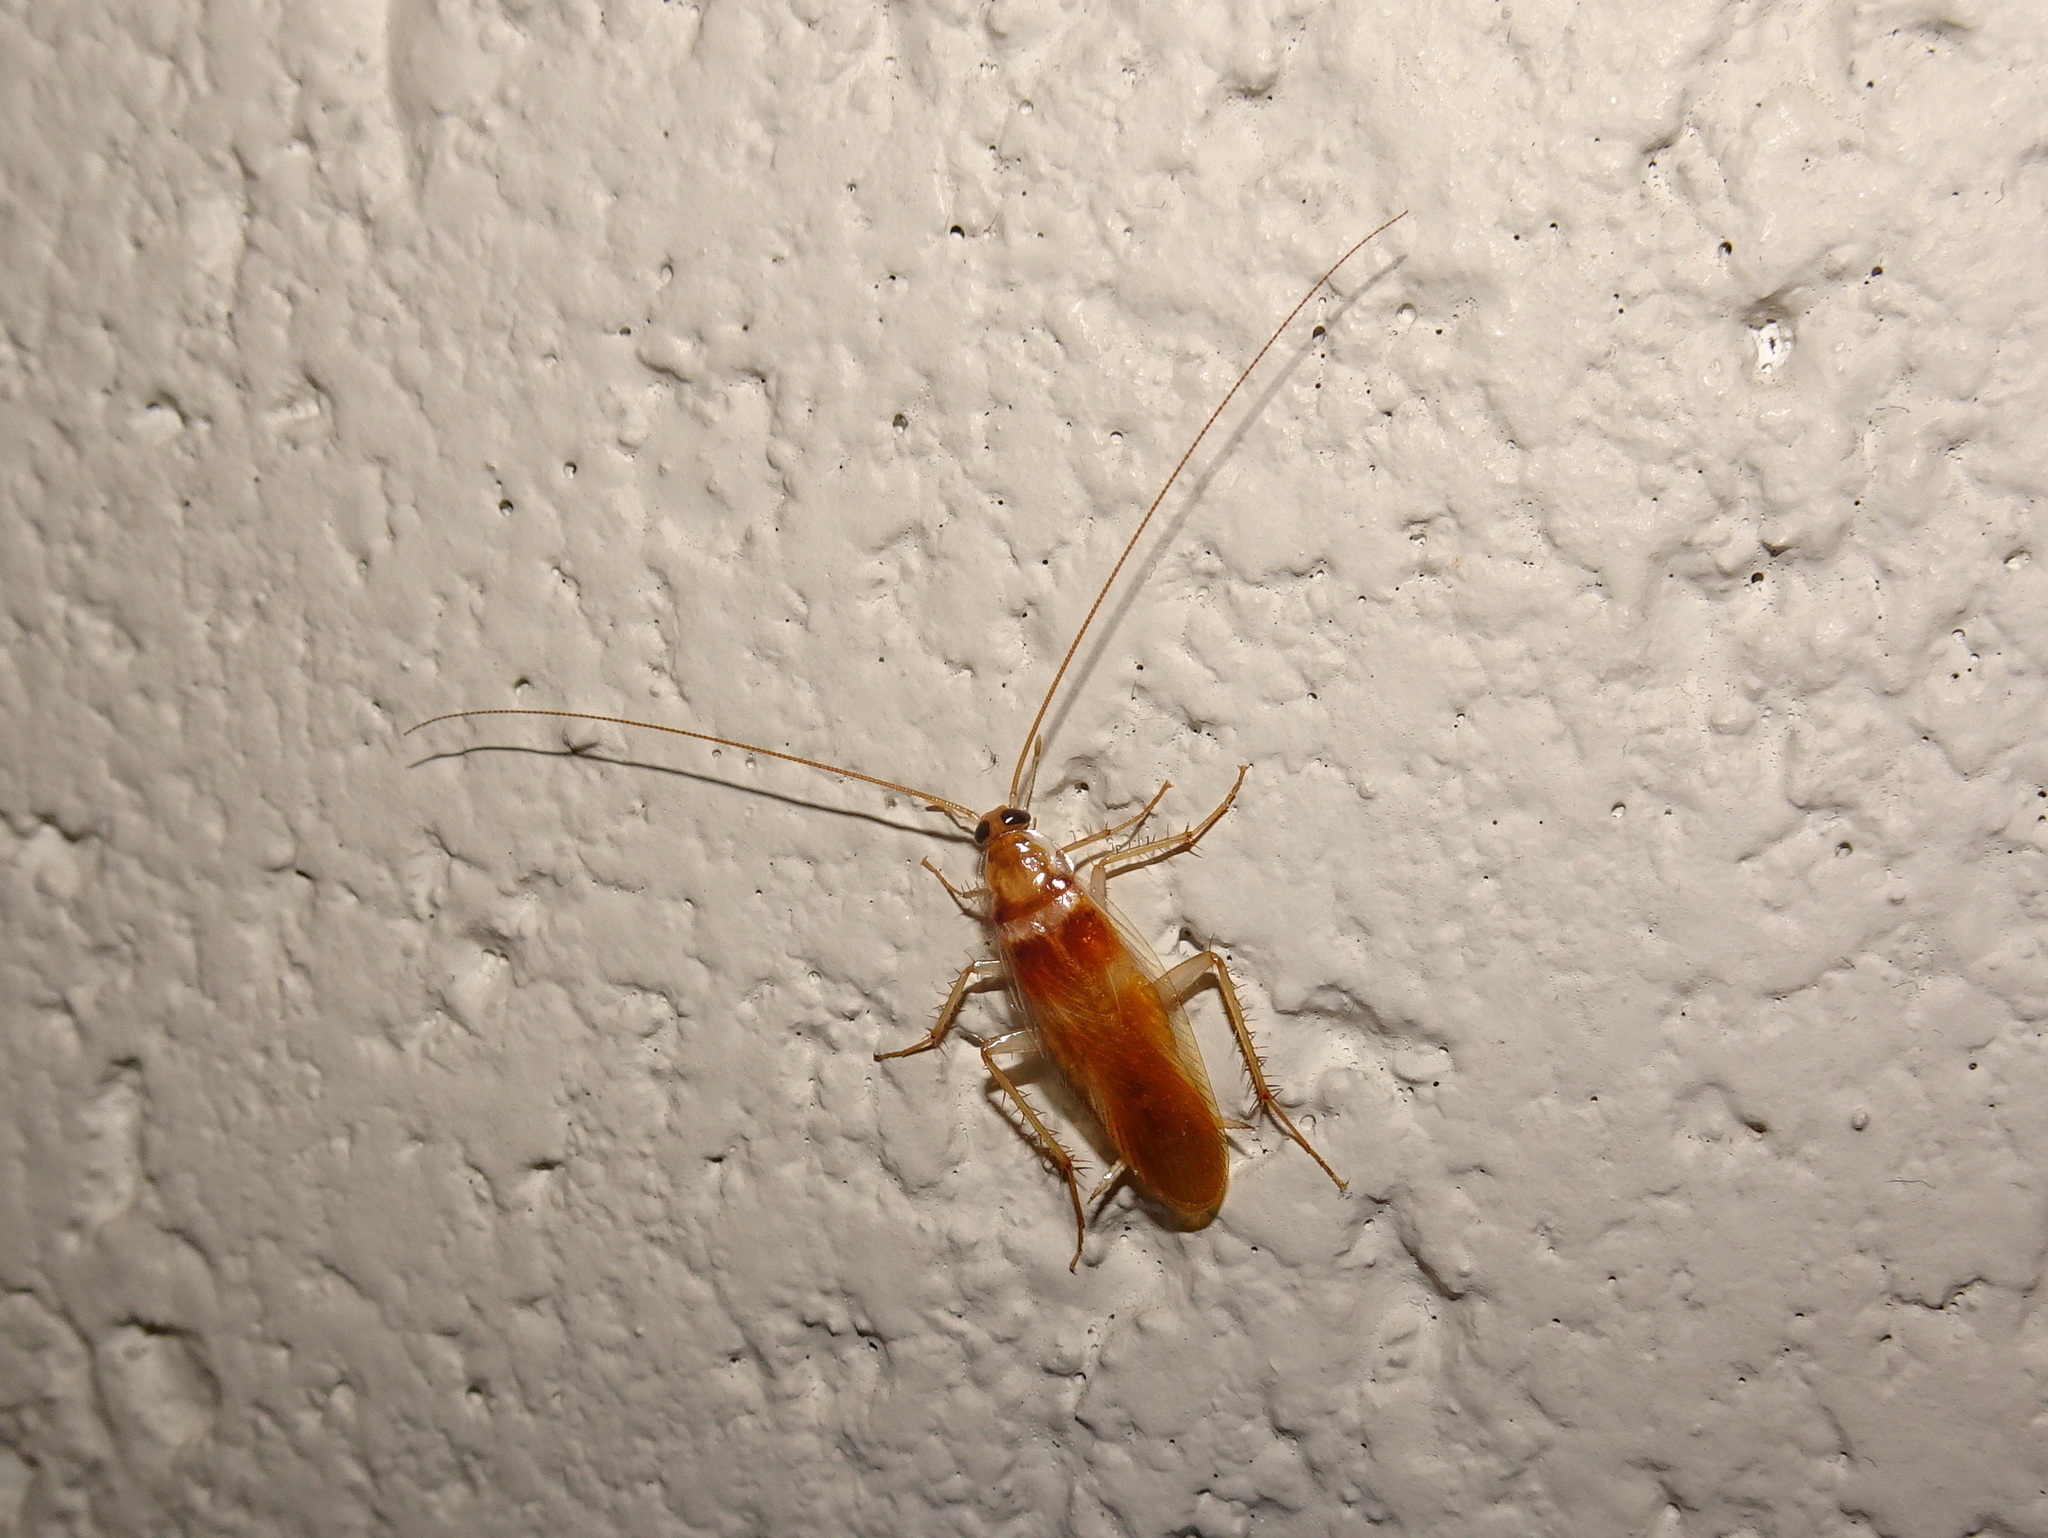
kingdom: Animalia
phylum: Arthropoda
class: Insecta
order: Blattodea
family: Ectobiidae
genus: Supella
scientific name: Supella longipalpa
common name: Brown-banded cockroach
